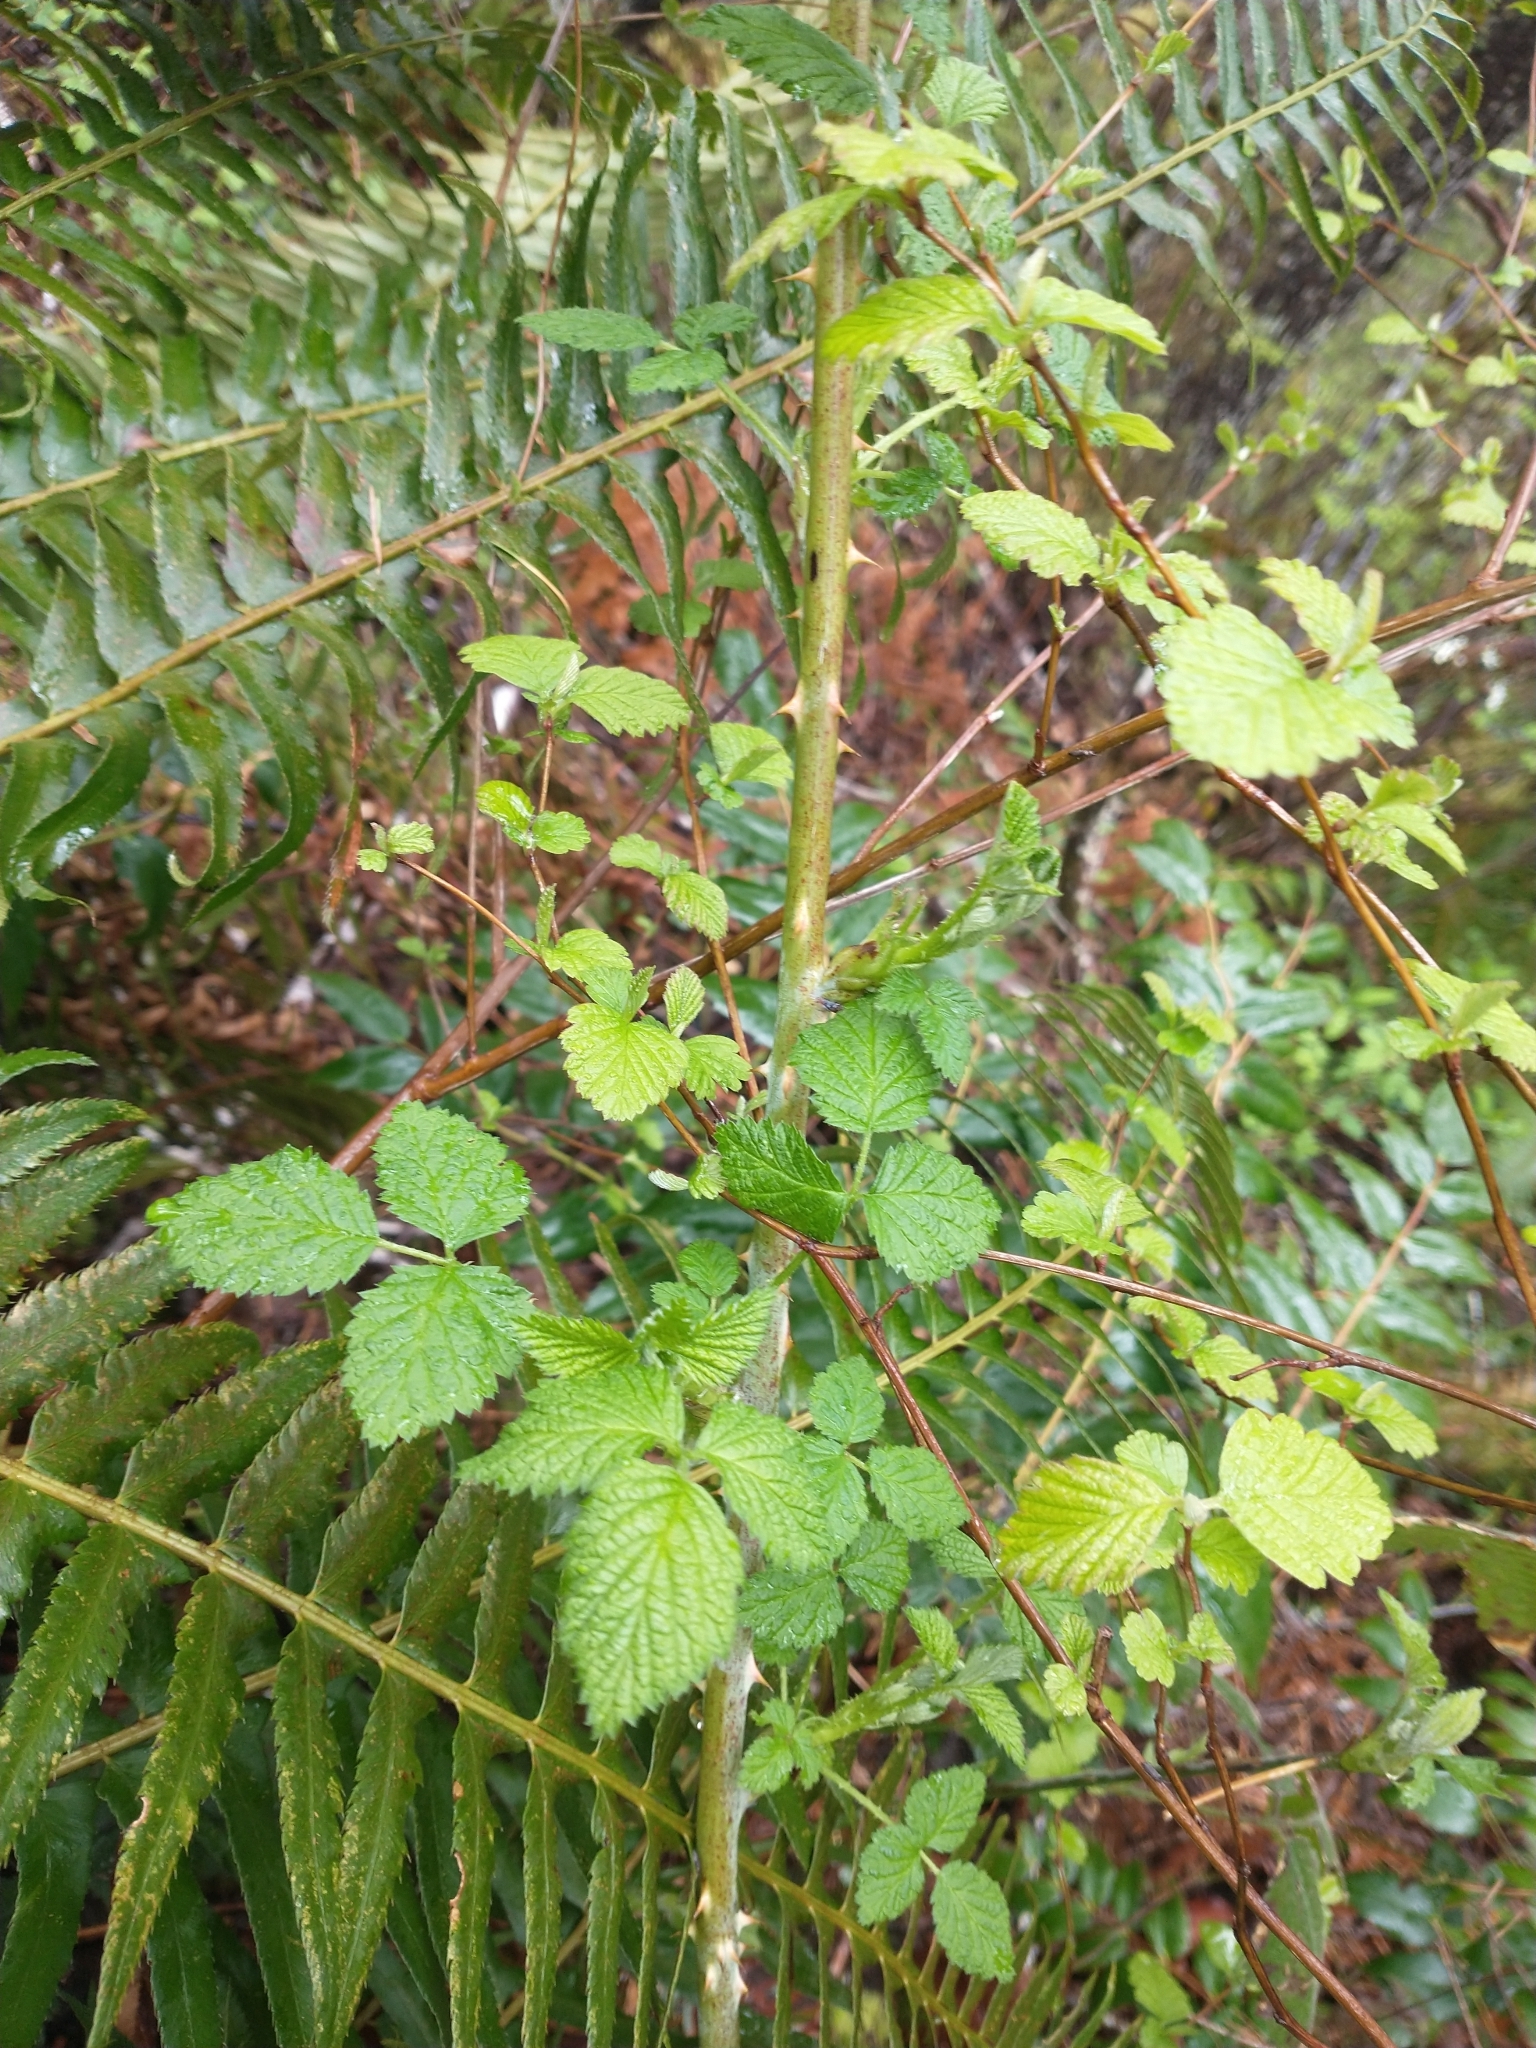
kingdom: Plantae
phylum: Tracheophyta
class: Magnoliopsida
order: Rosales
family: Rosaceae
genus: Rubus
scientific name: Rubus leucodermis
